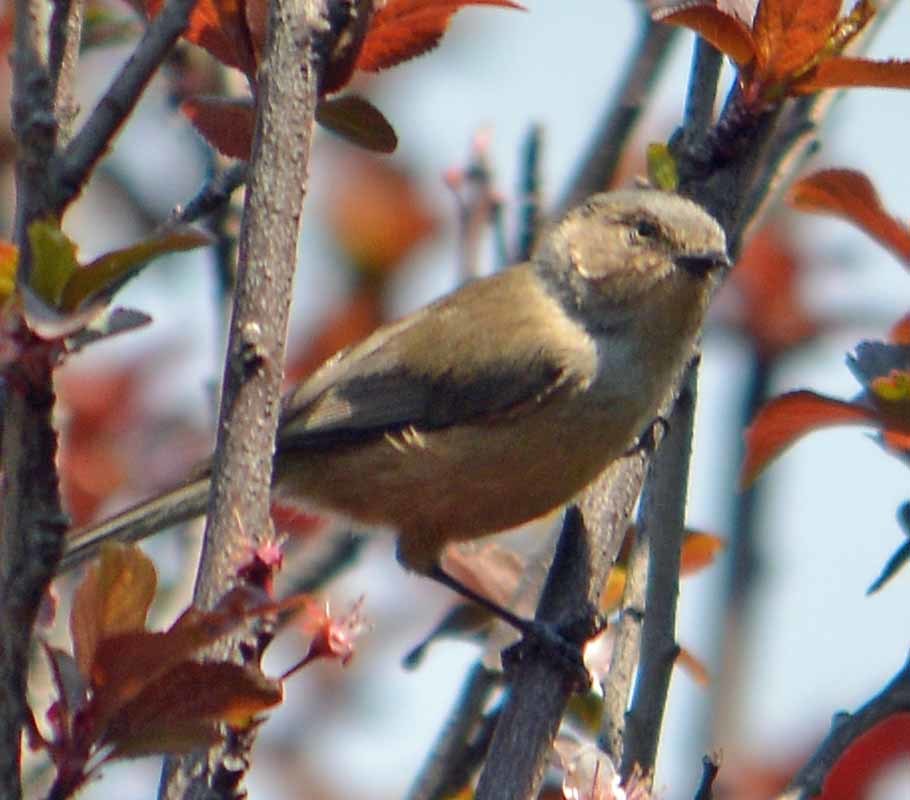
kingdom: Animalia
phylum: Chordata
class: Aves
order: Passeriformes
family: Aegithalidae
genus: Psaltriparus
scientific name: Psaltriparus minimus
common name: American bushtit
